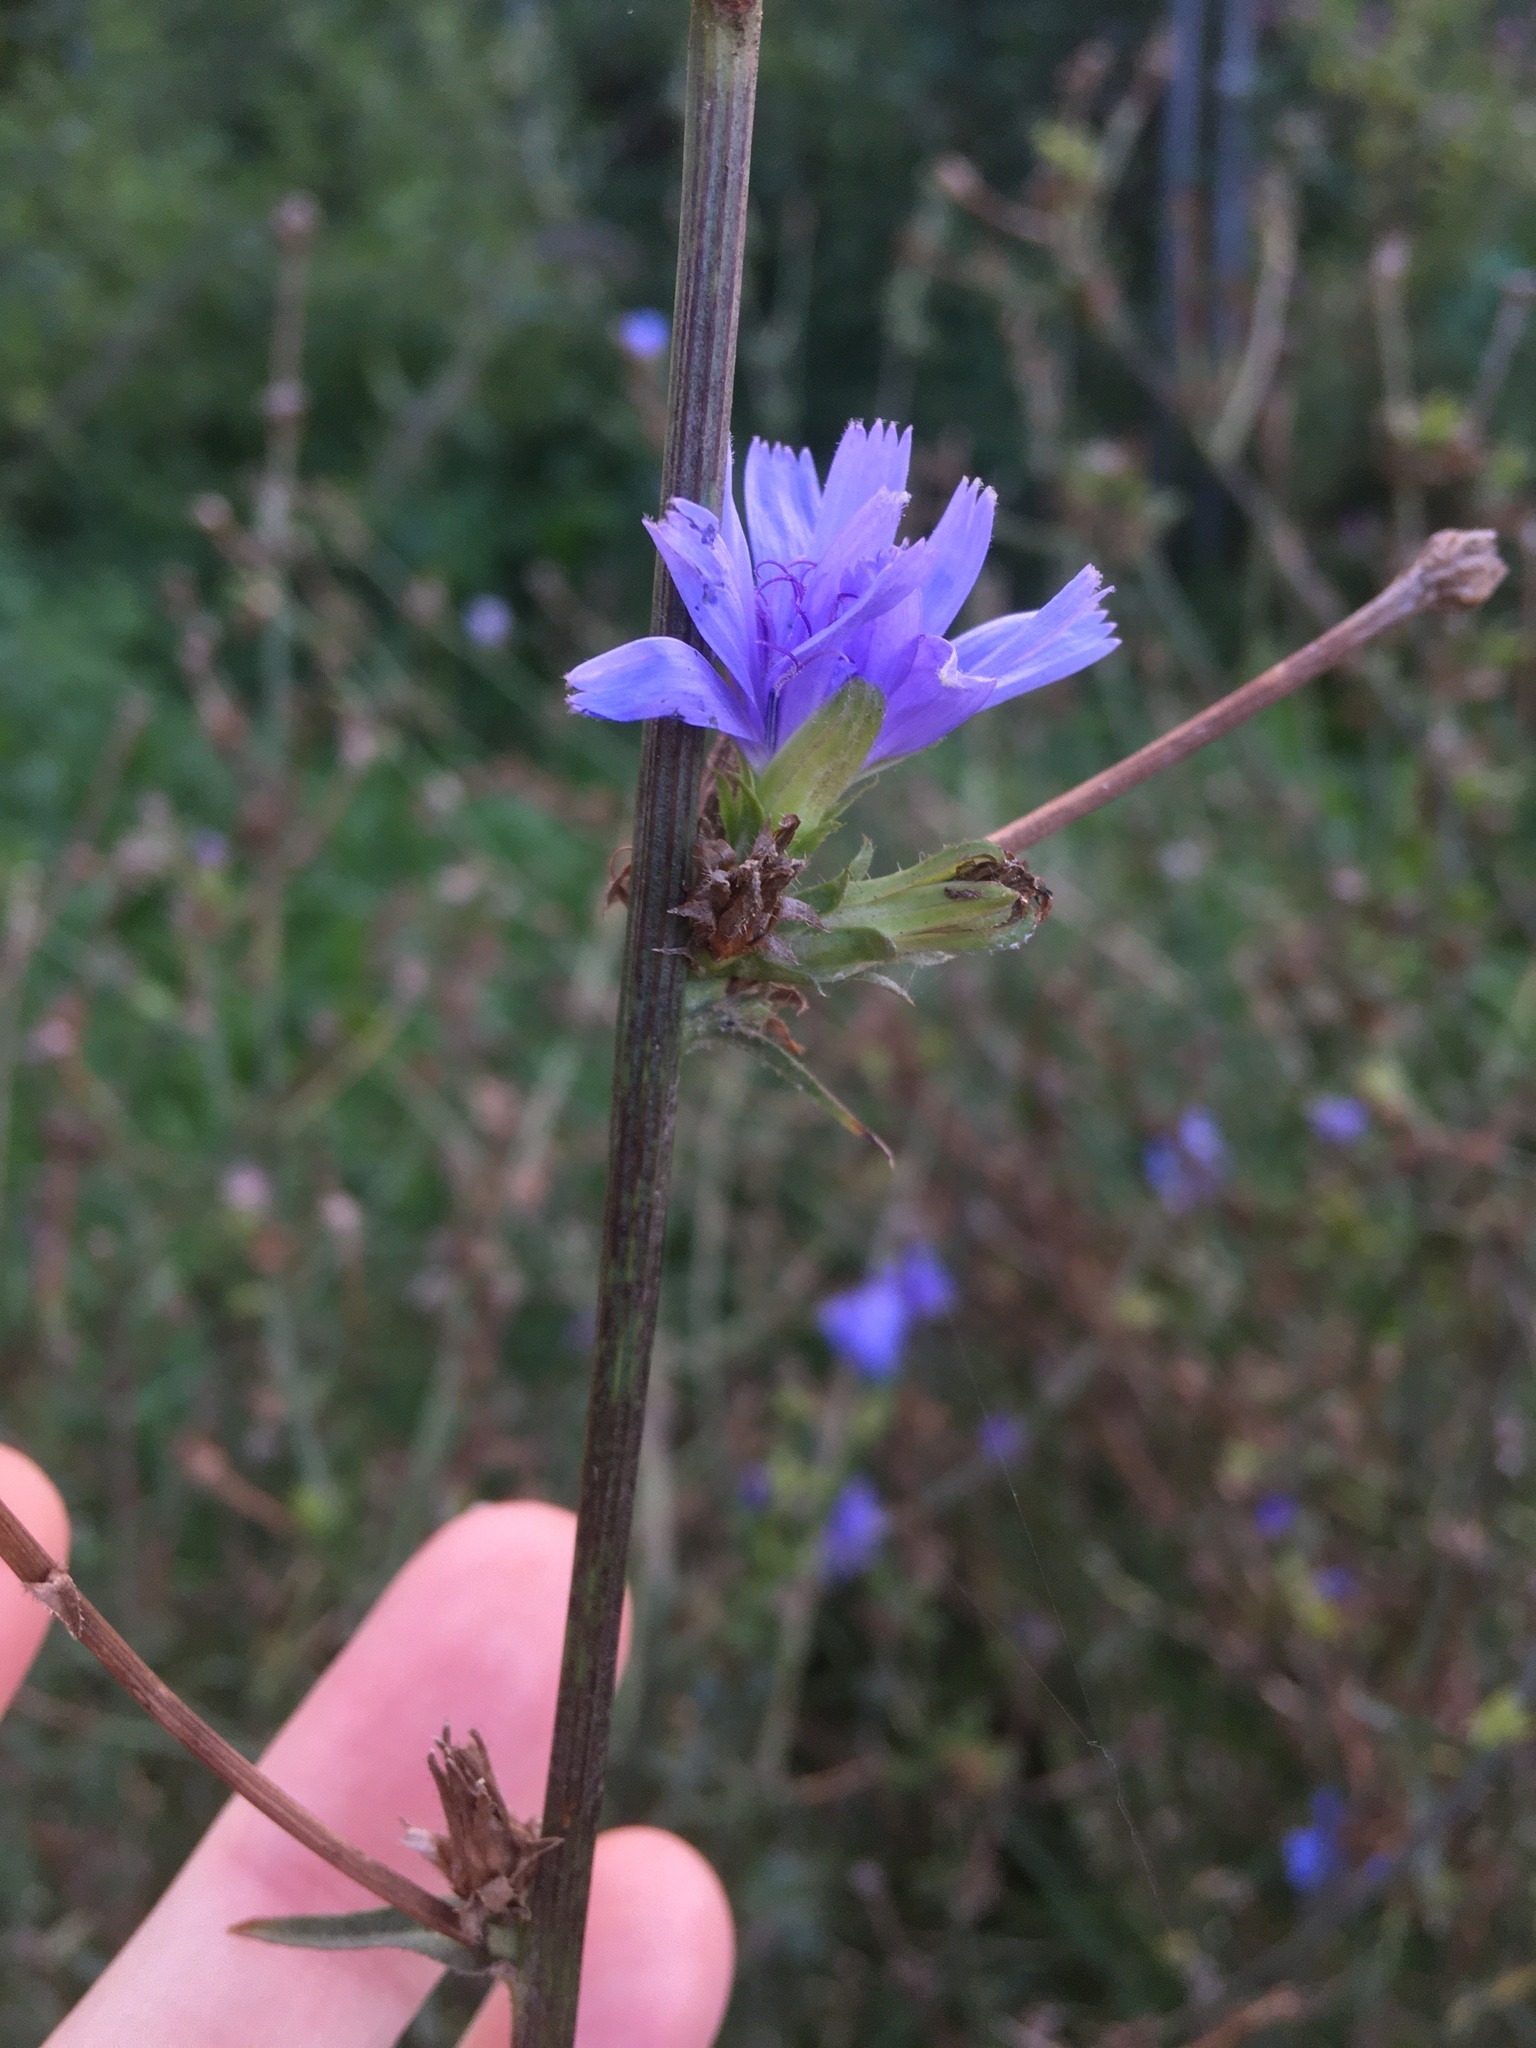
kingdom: Plantae
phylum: Tracheophyta
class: Magnoliopsida
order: Asterales
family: Asteraceae
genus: Cichorium
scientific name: Cichorium intybus
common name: Chicory
